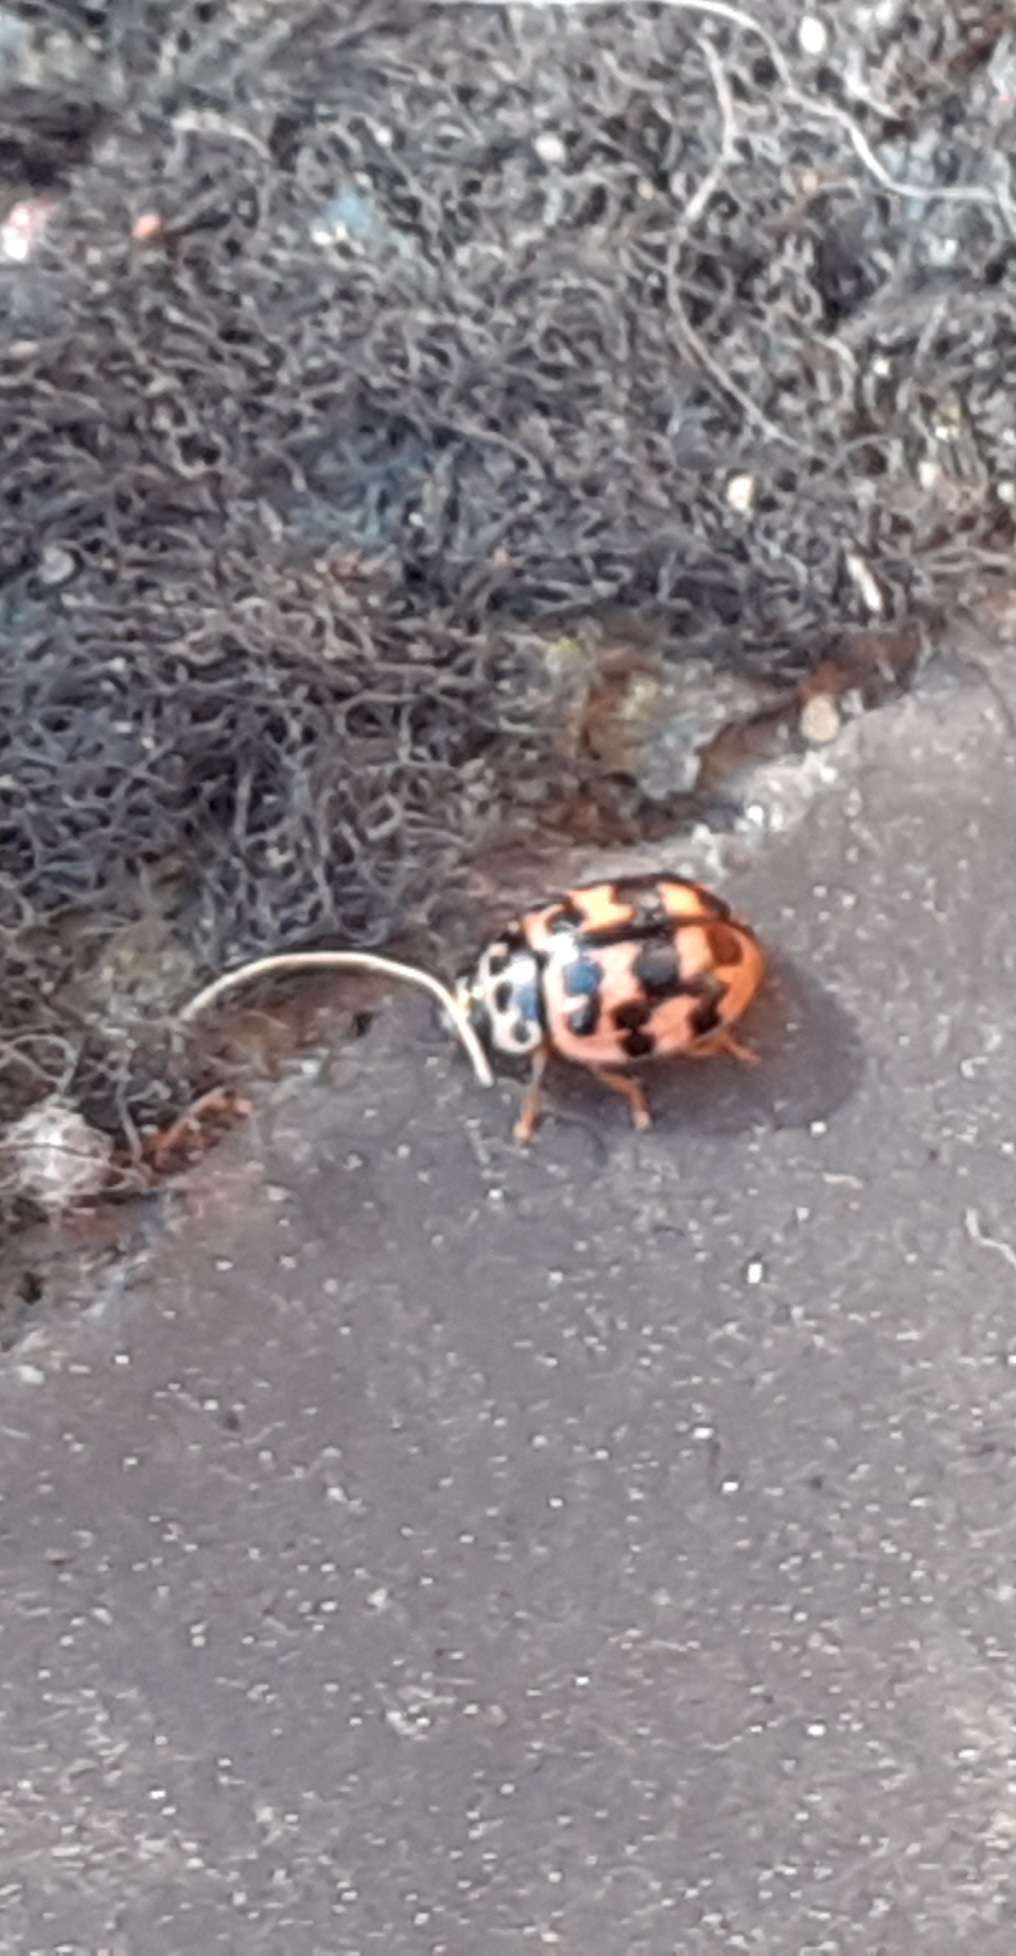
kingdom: Animalia
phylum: Arthropoda
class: Insecta
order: Coleoptera
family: Coccinellidae
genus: Oenopia
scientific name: Oenopia conglobata
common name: Ladybird beetle
